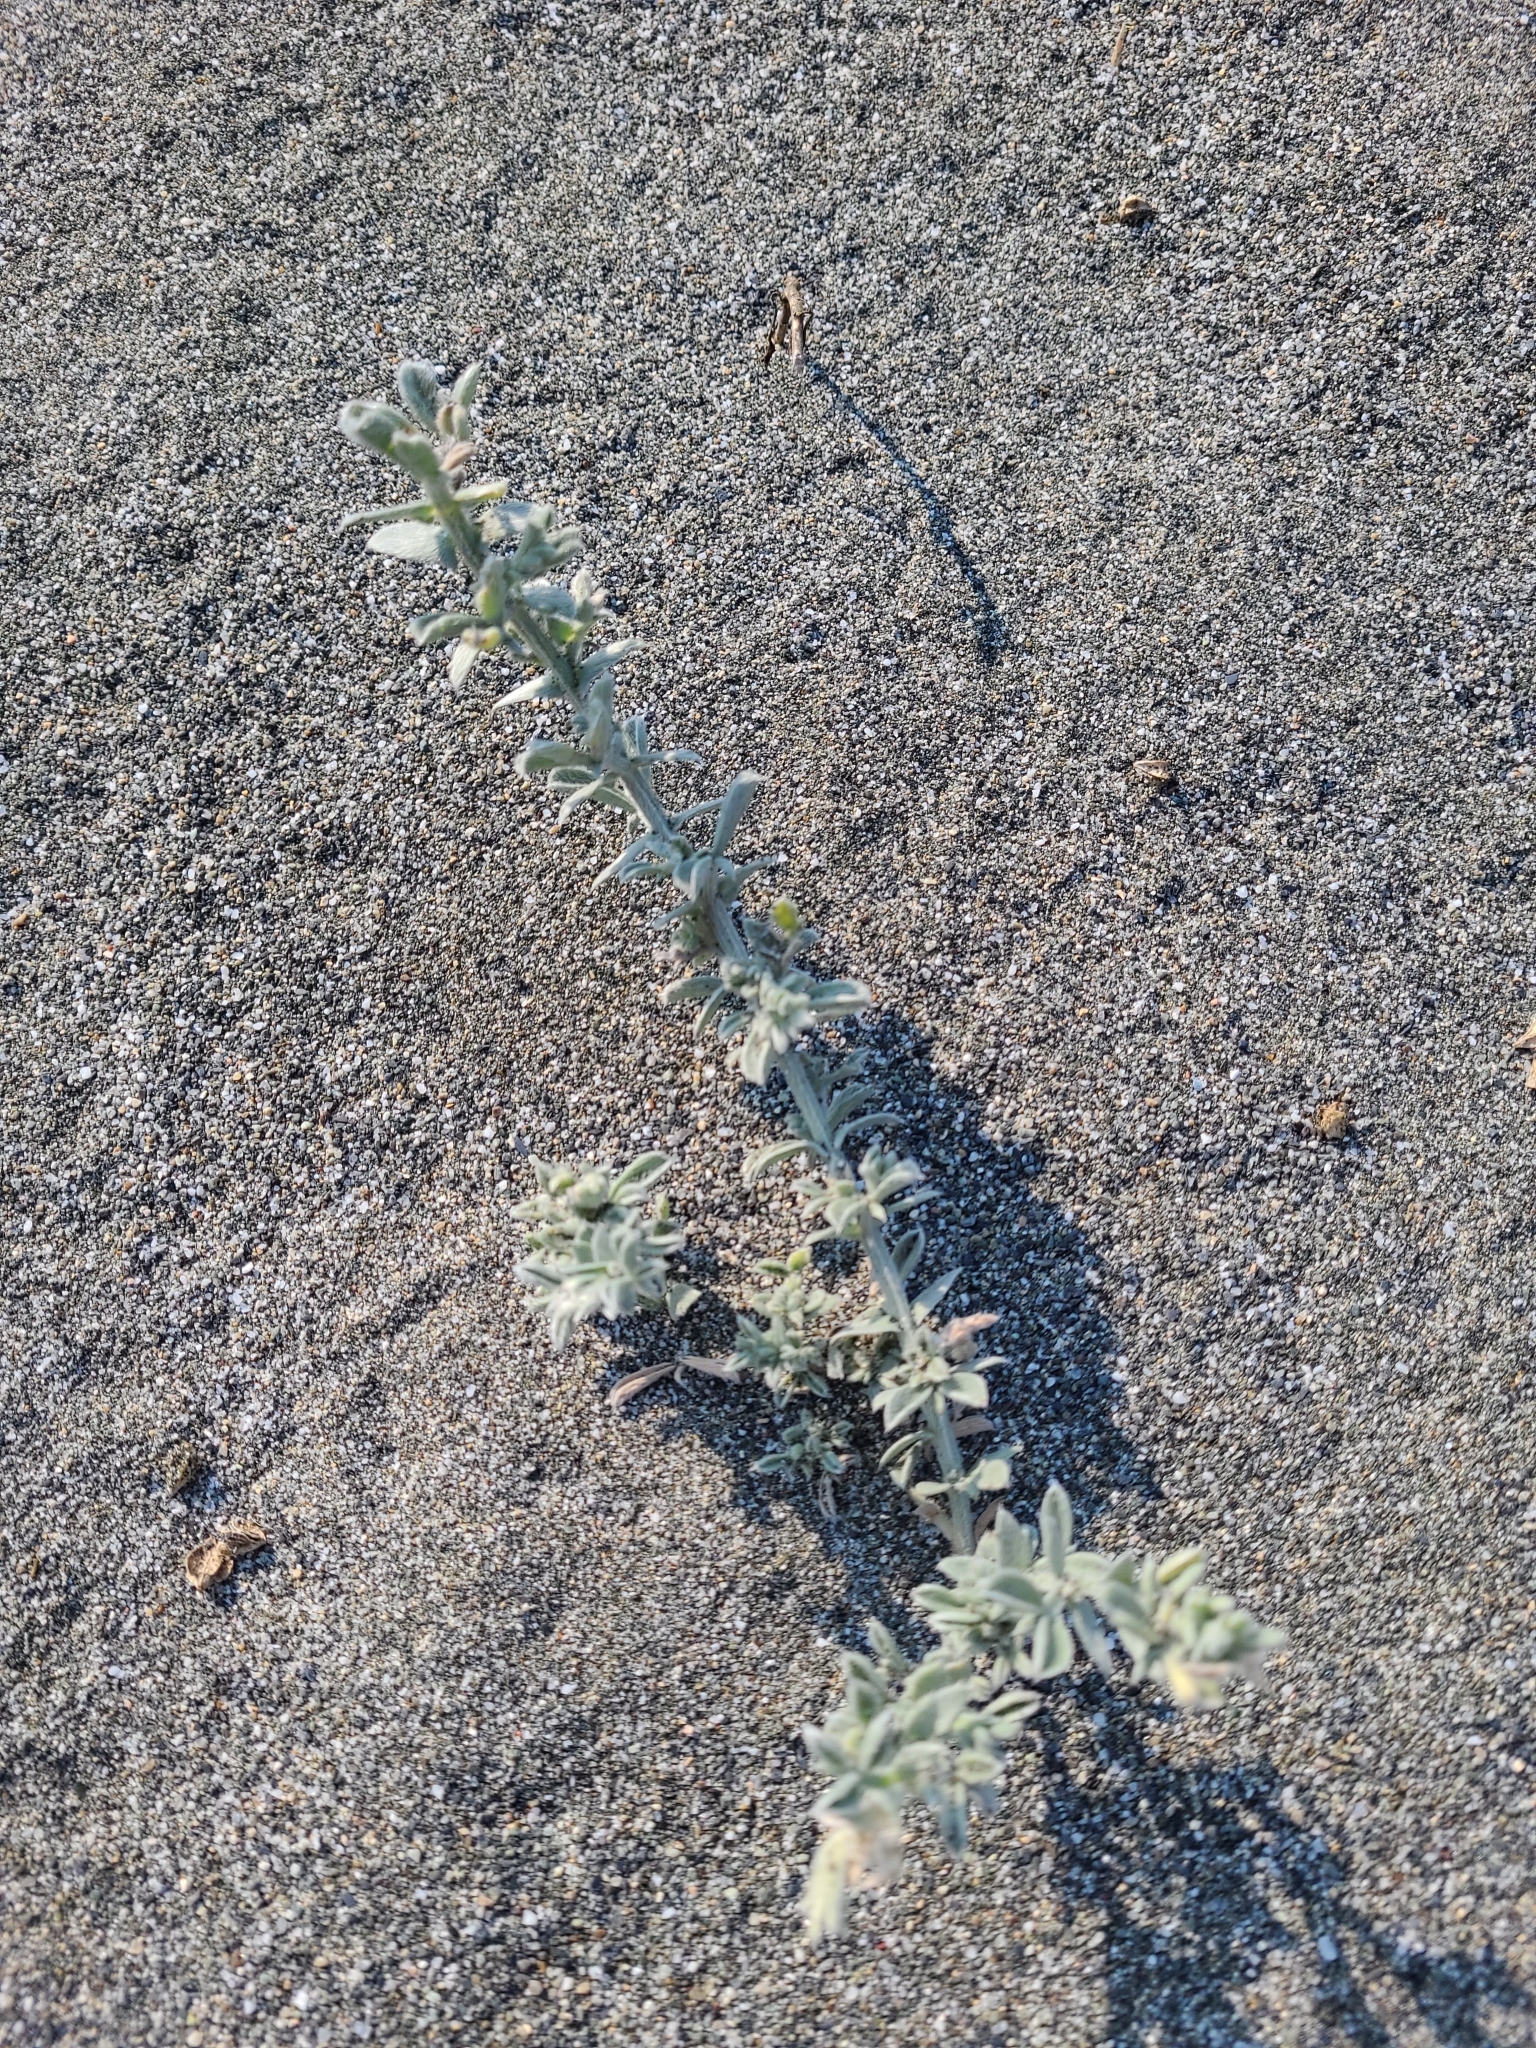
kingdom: Plantae
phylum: Tracheophyta
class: Magnoliopsida
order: Fabales
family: Fabaceae
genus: Lathyrus
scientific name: Lathyrus littoralis
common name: Dune sweet pea
